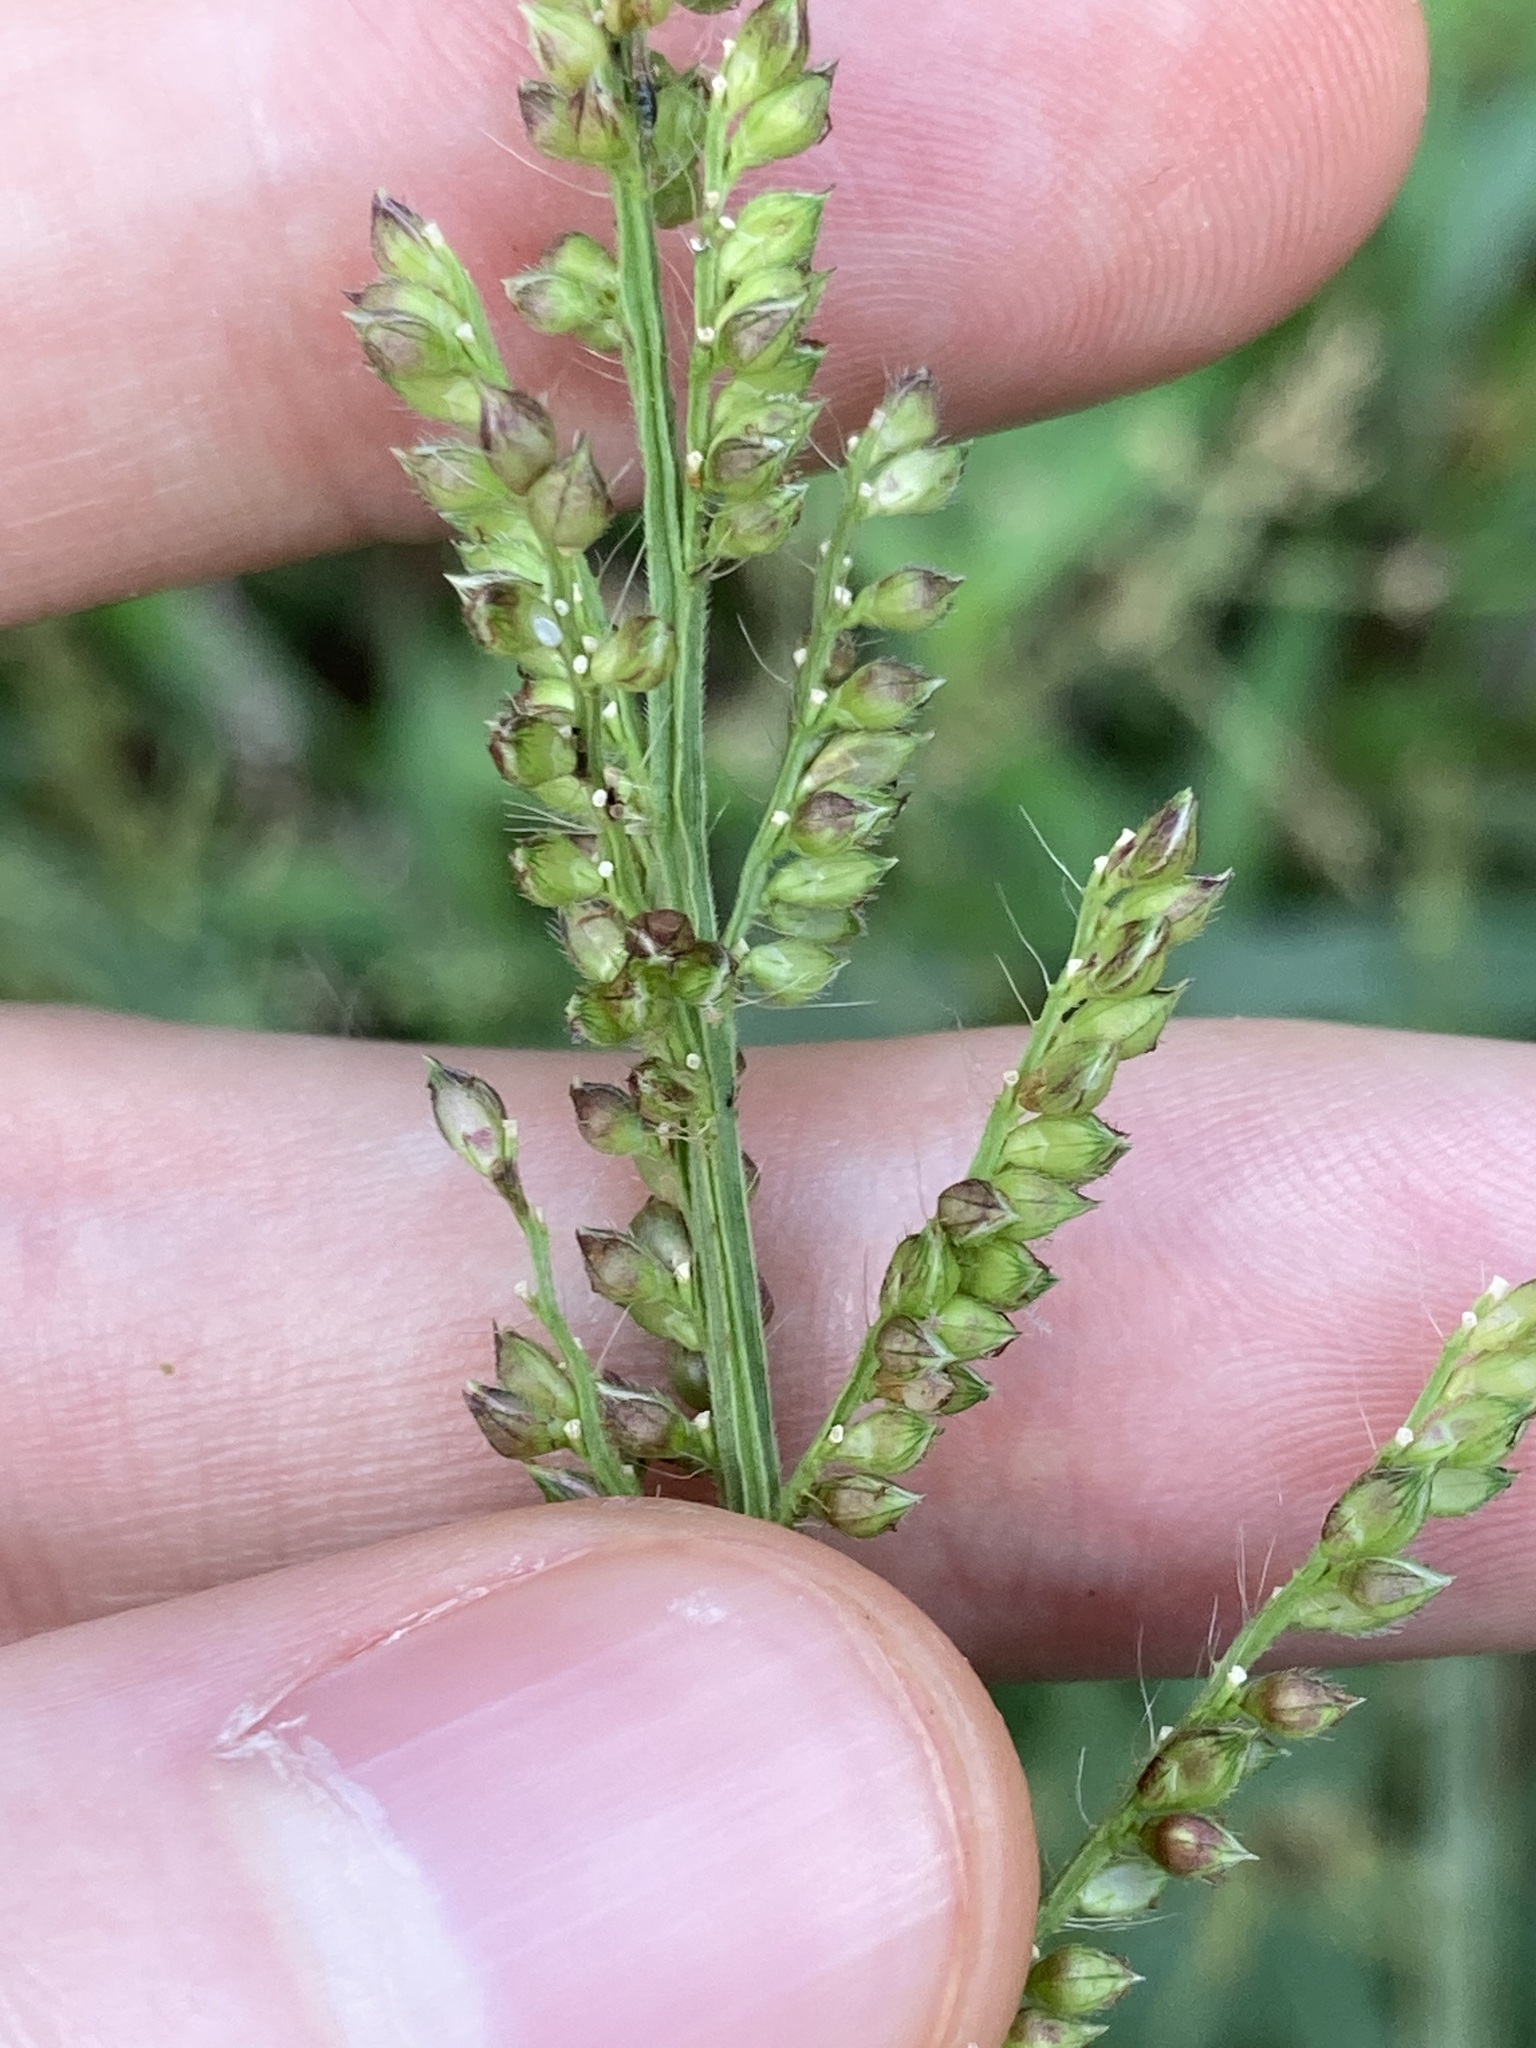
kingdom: Plantae
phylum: Tracheophyta
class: Liliopsida
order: Poales
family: Poaceae
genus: Echinochloa
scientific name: Echinochloa crus-galli
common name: Cockspur
